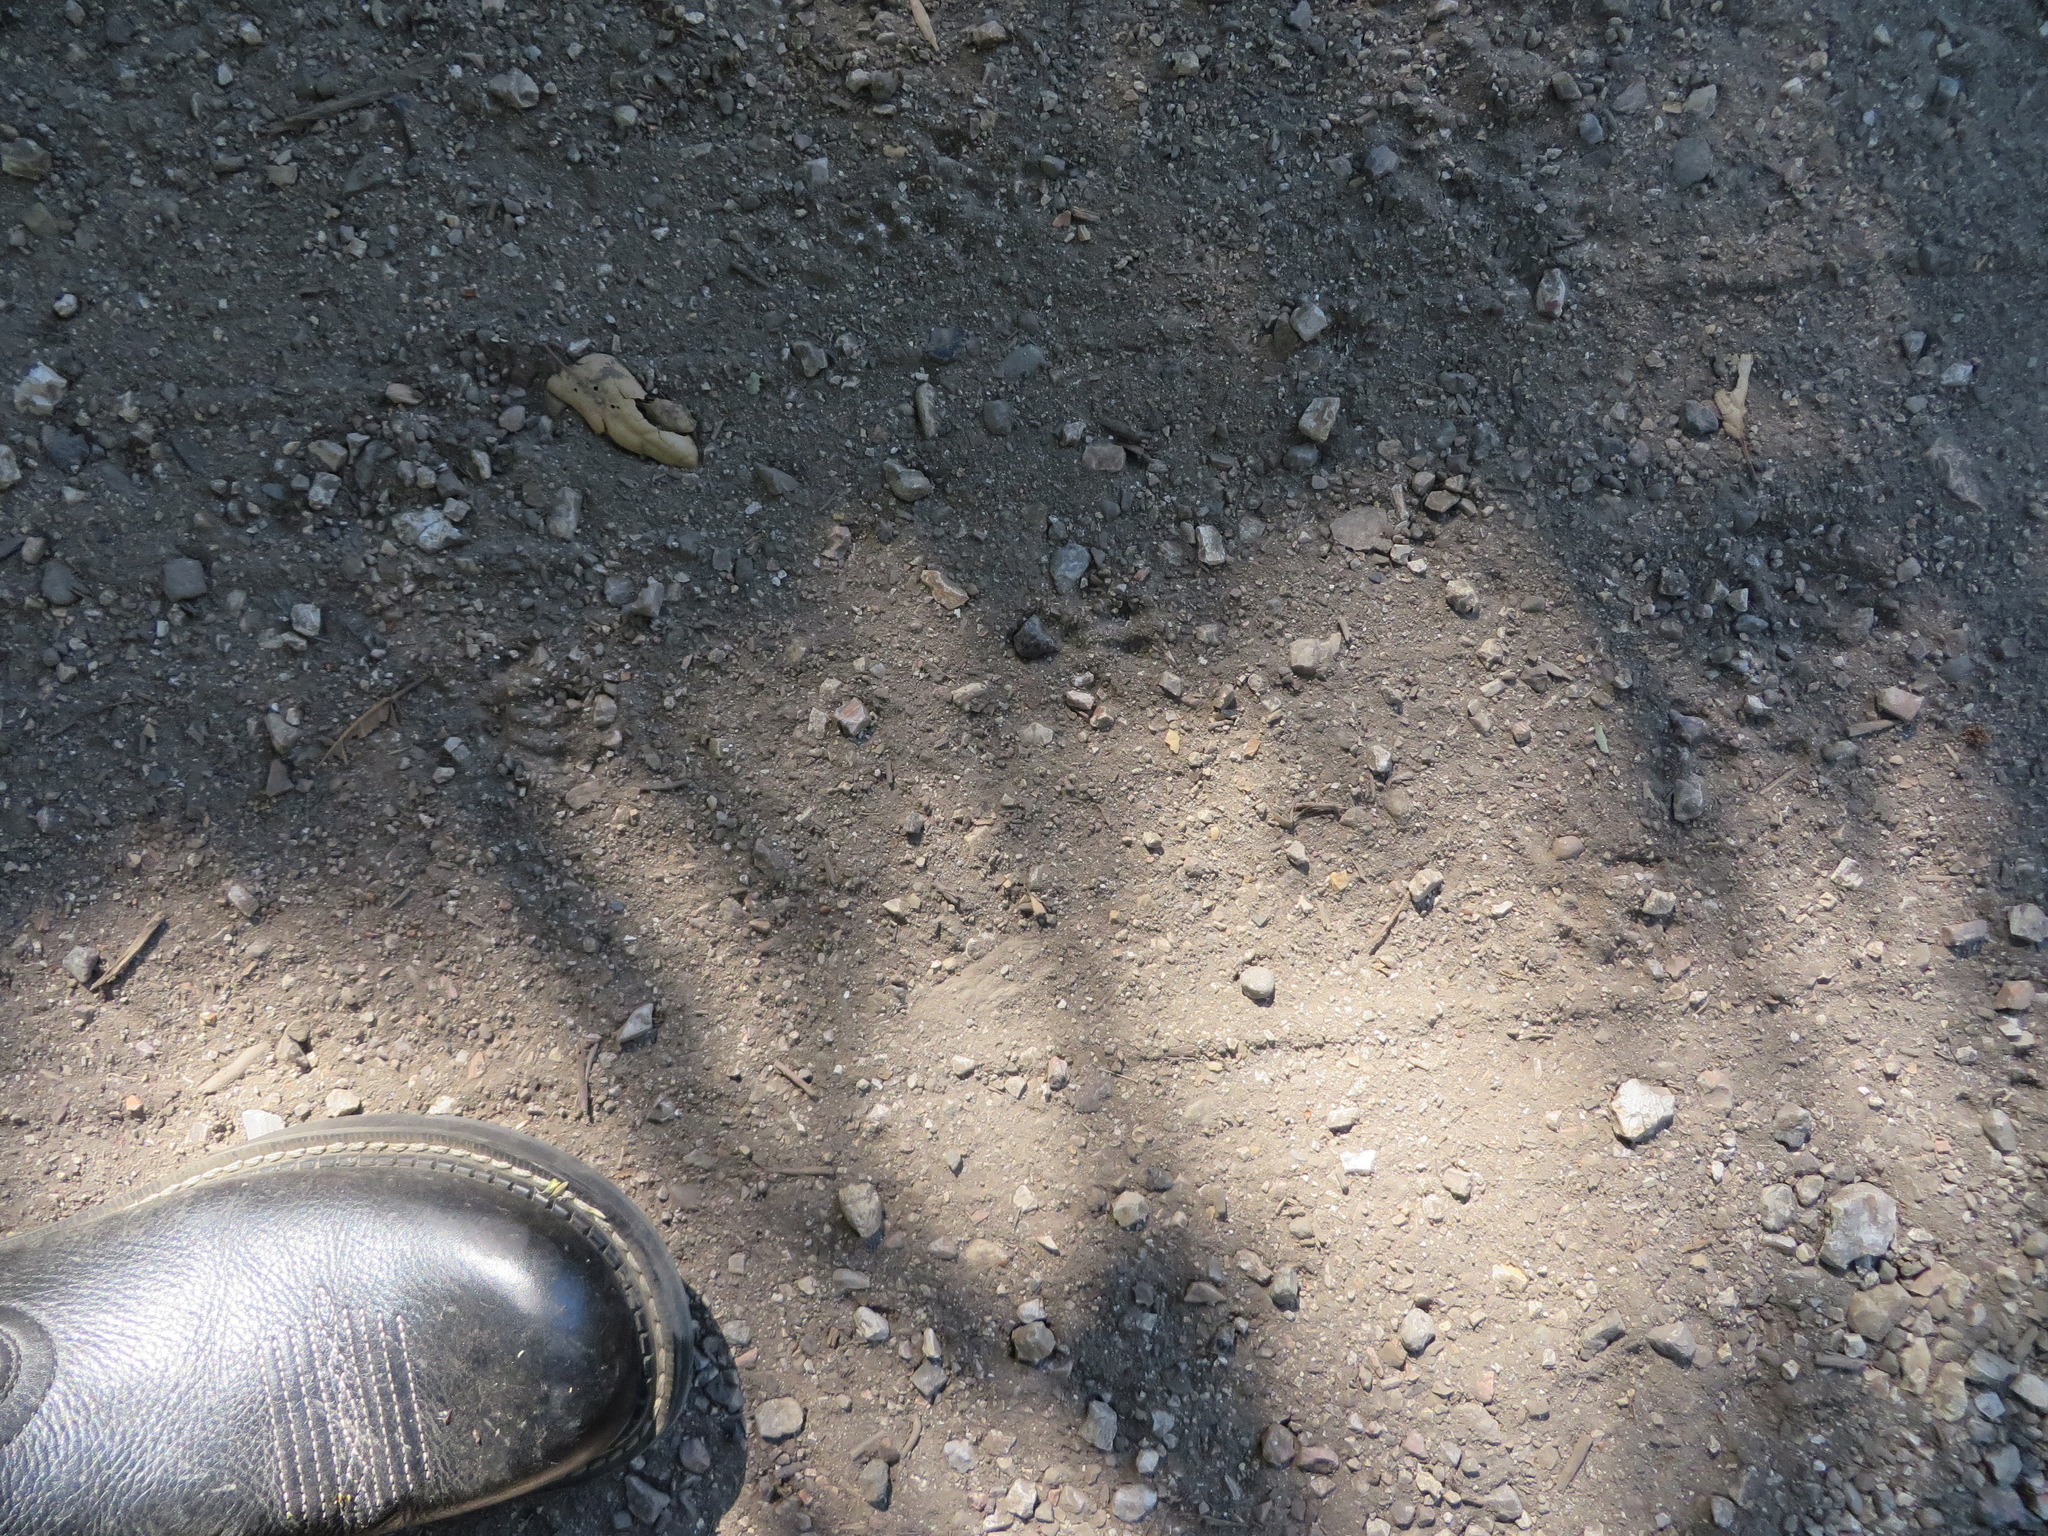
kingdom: Animalia
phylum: Chordata
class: Mammalia
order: Rodentia
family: Sciuridae
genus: Sciurus
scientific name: Sciurus griseus
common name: Western gray squirrel
